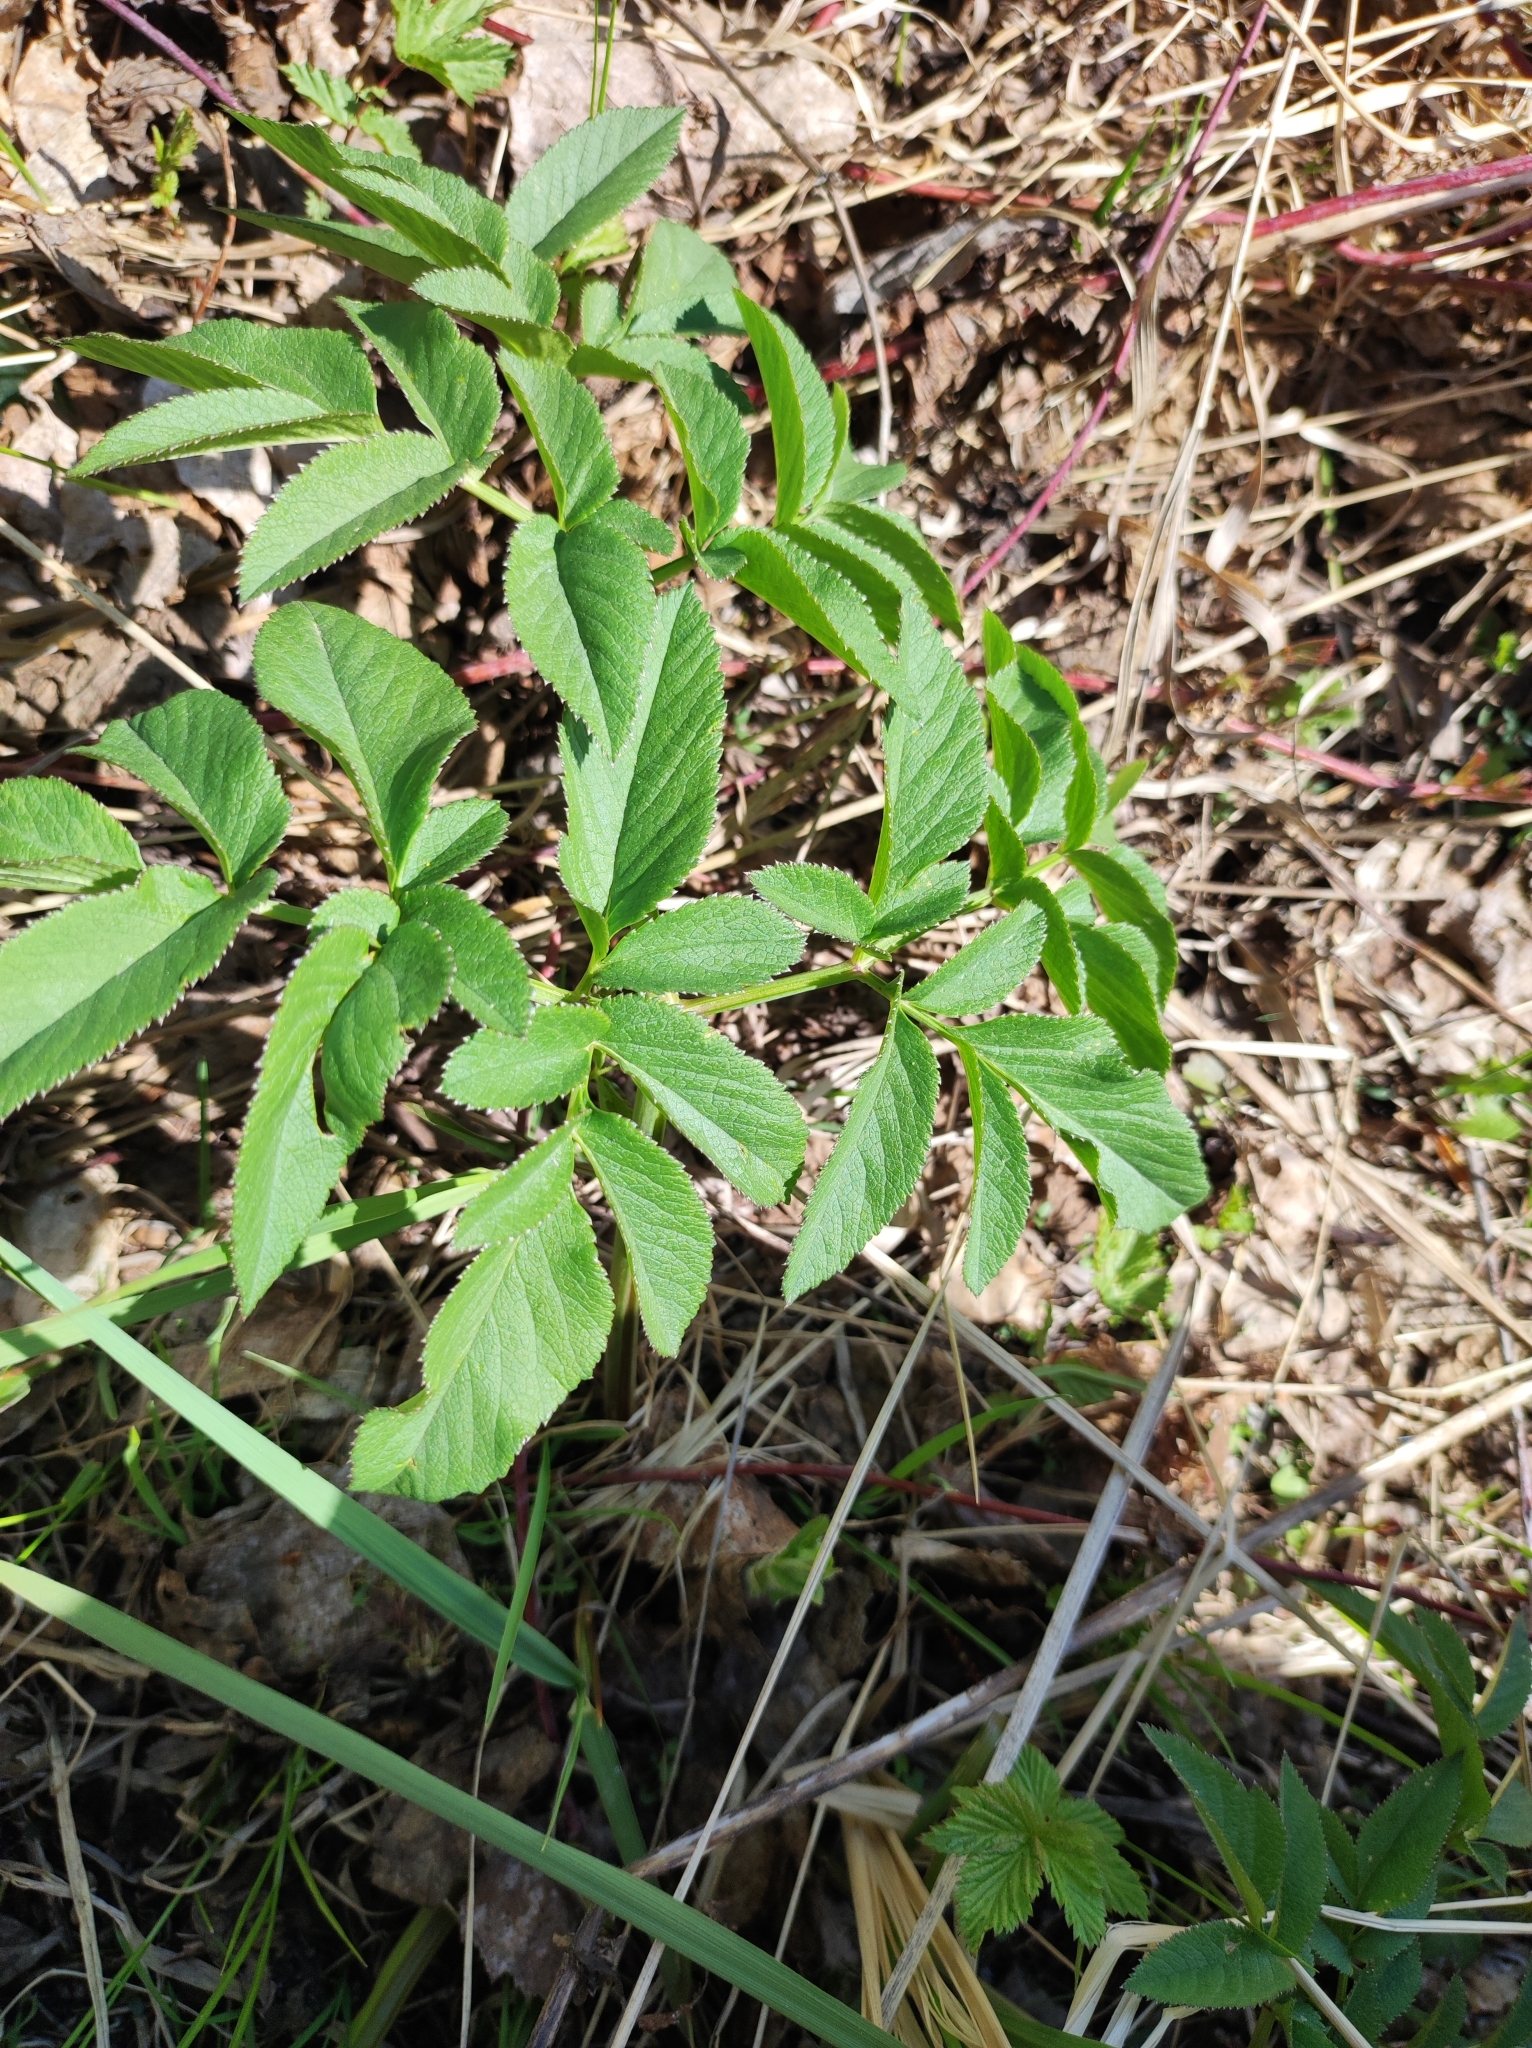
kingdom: Plantae
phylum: Tracheophyta
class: Magnoliopsida
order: Apiales
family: Apiaceae
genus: Angelica
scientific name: Angelica sylvestris
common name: Wild angelica
